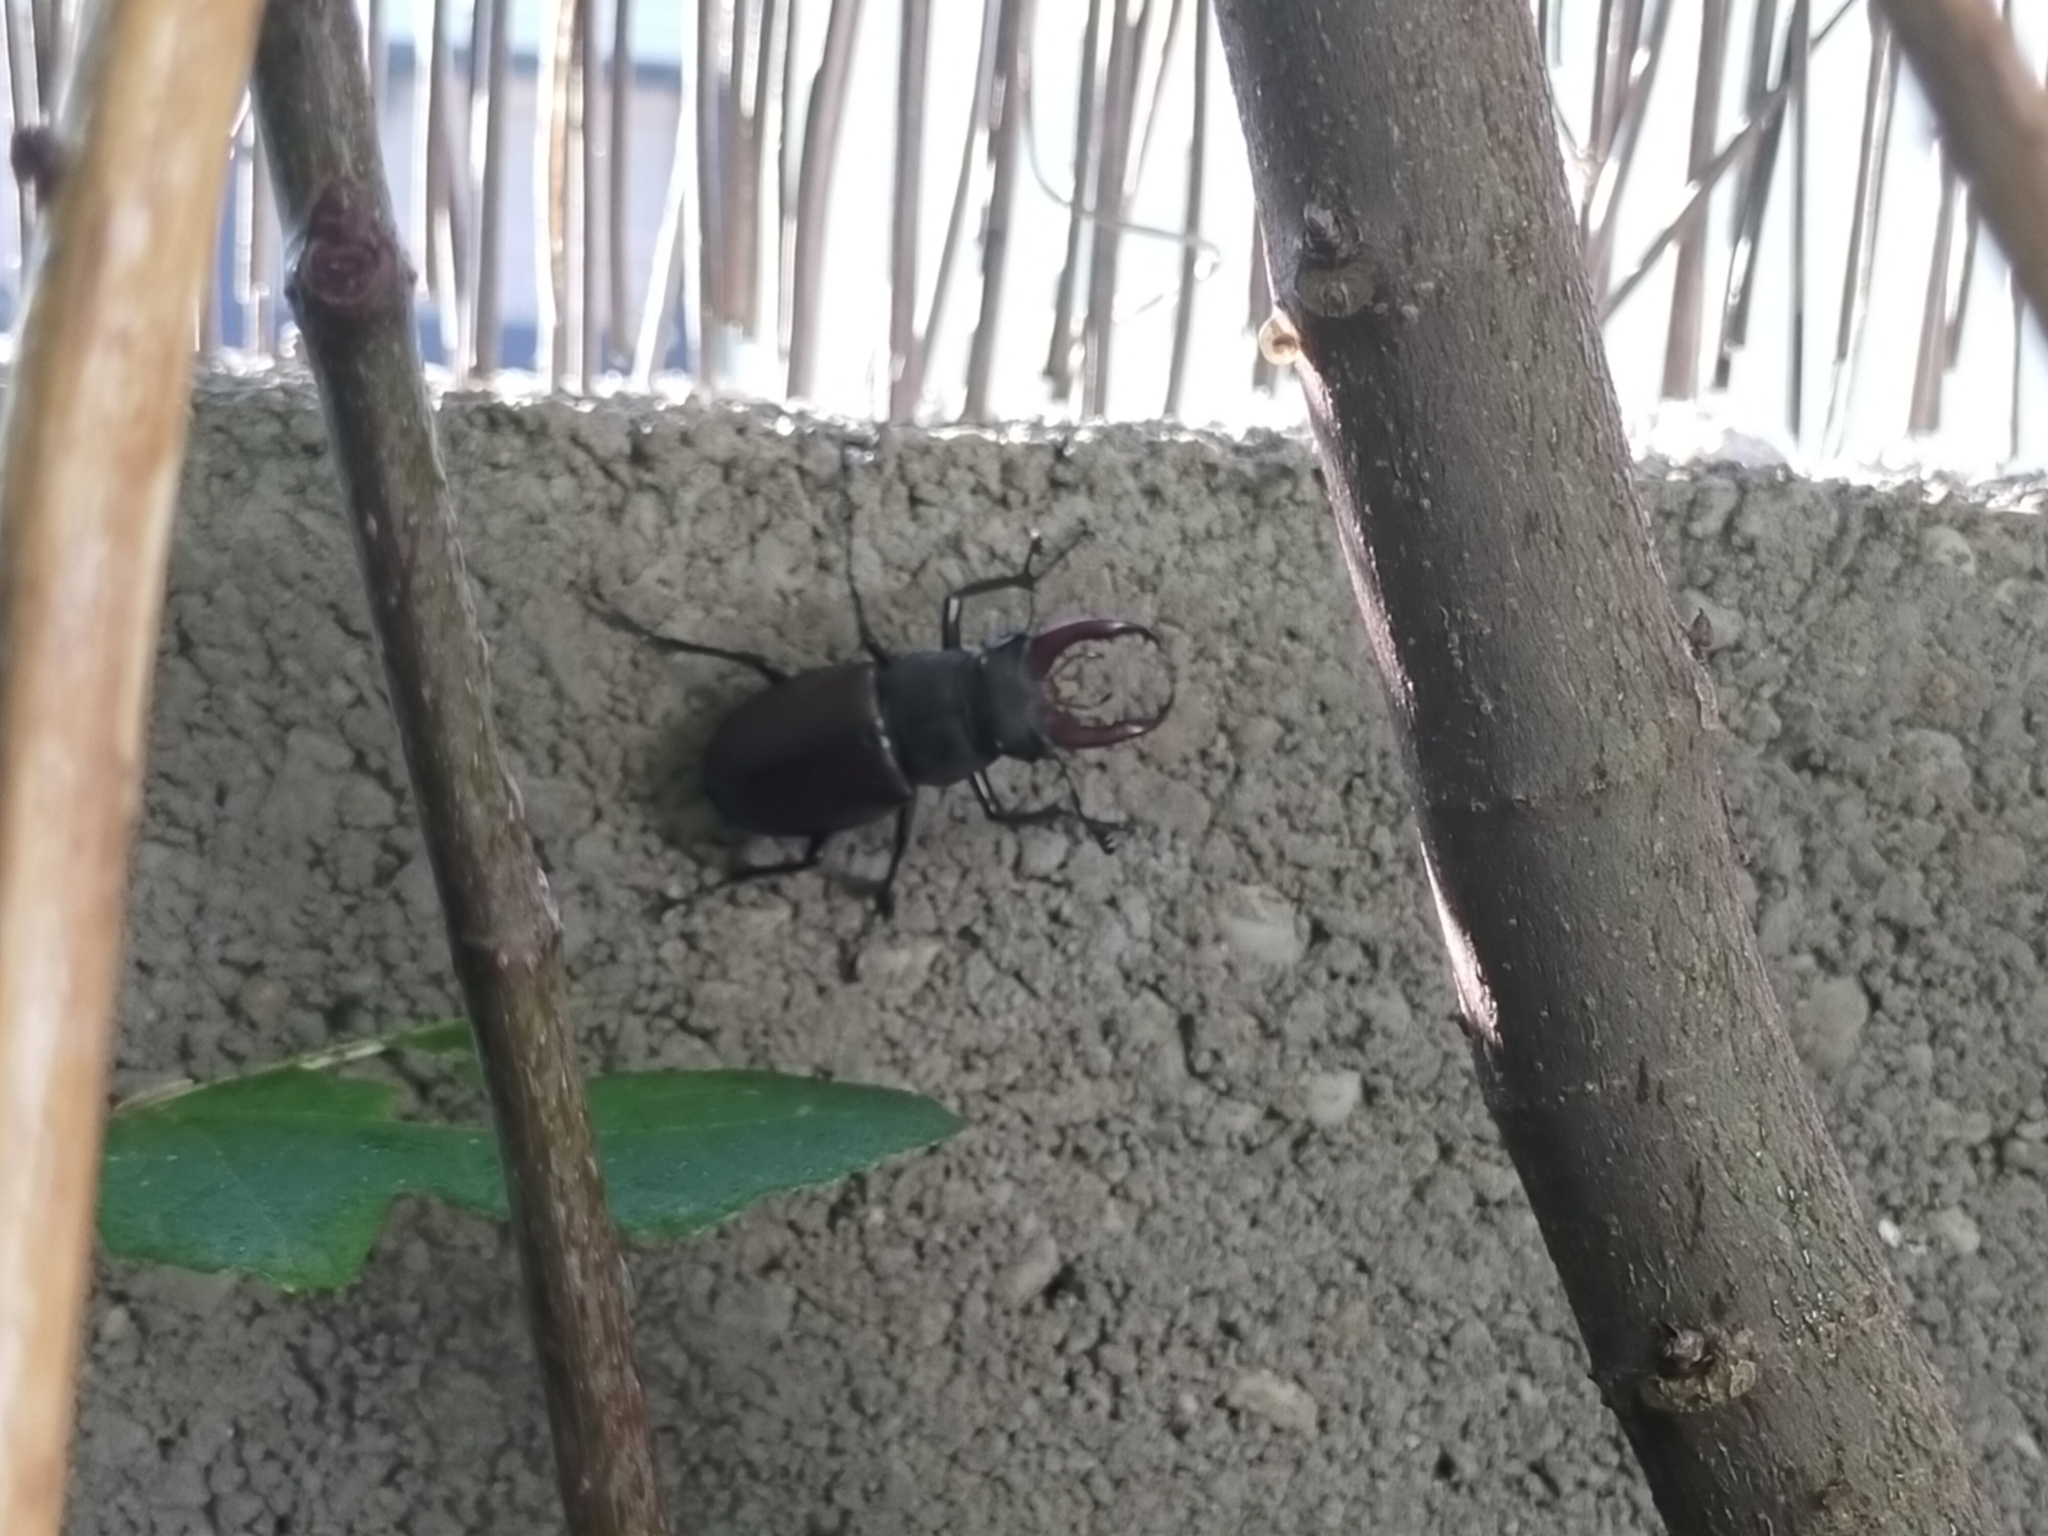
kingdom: Animalia
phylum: Arthropoda
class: Insecta
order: Coleoptera
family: Lucanidae
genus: Lucanus
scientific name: Lucanus cervus
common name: Stag beetle
